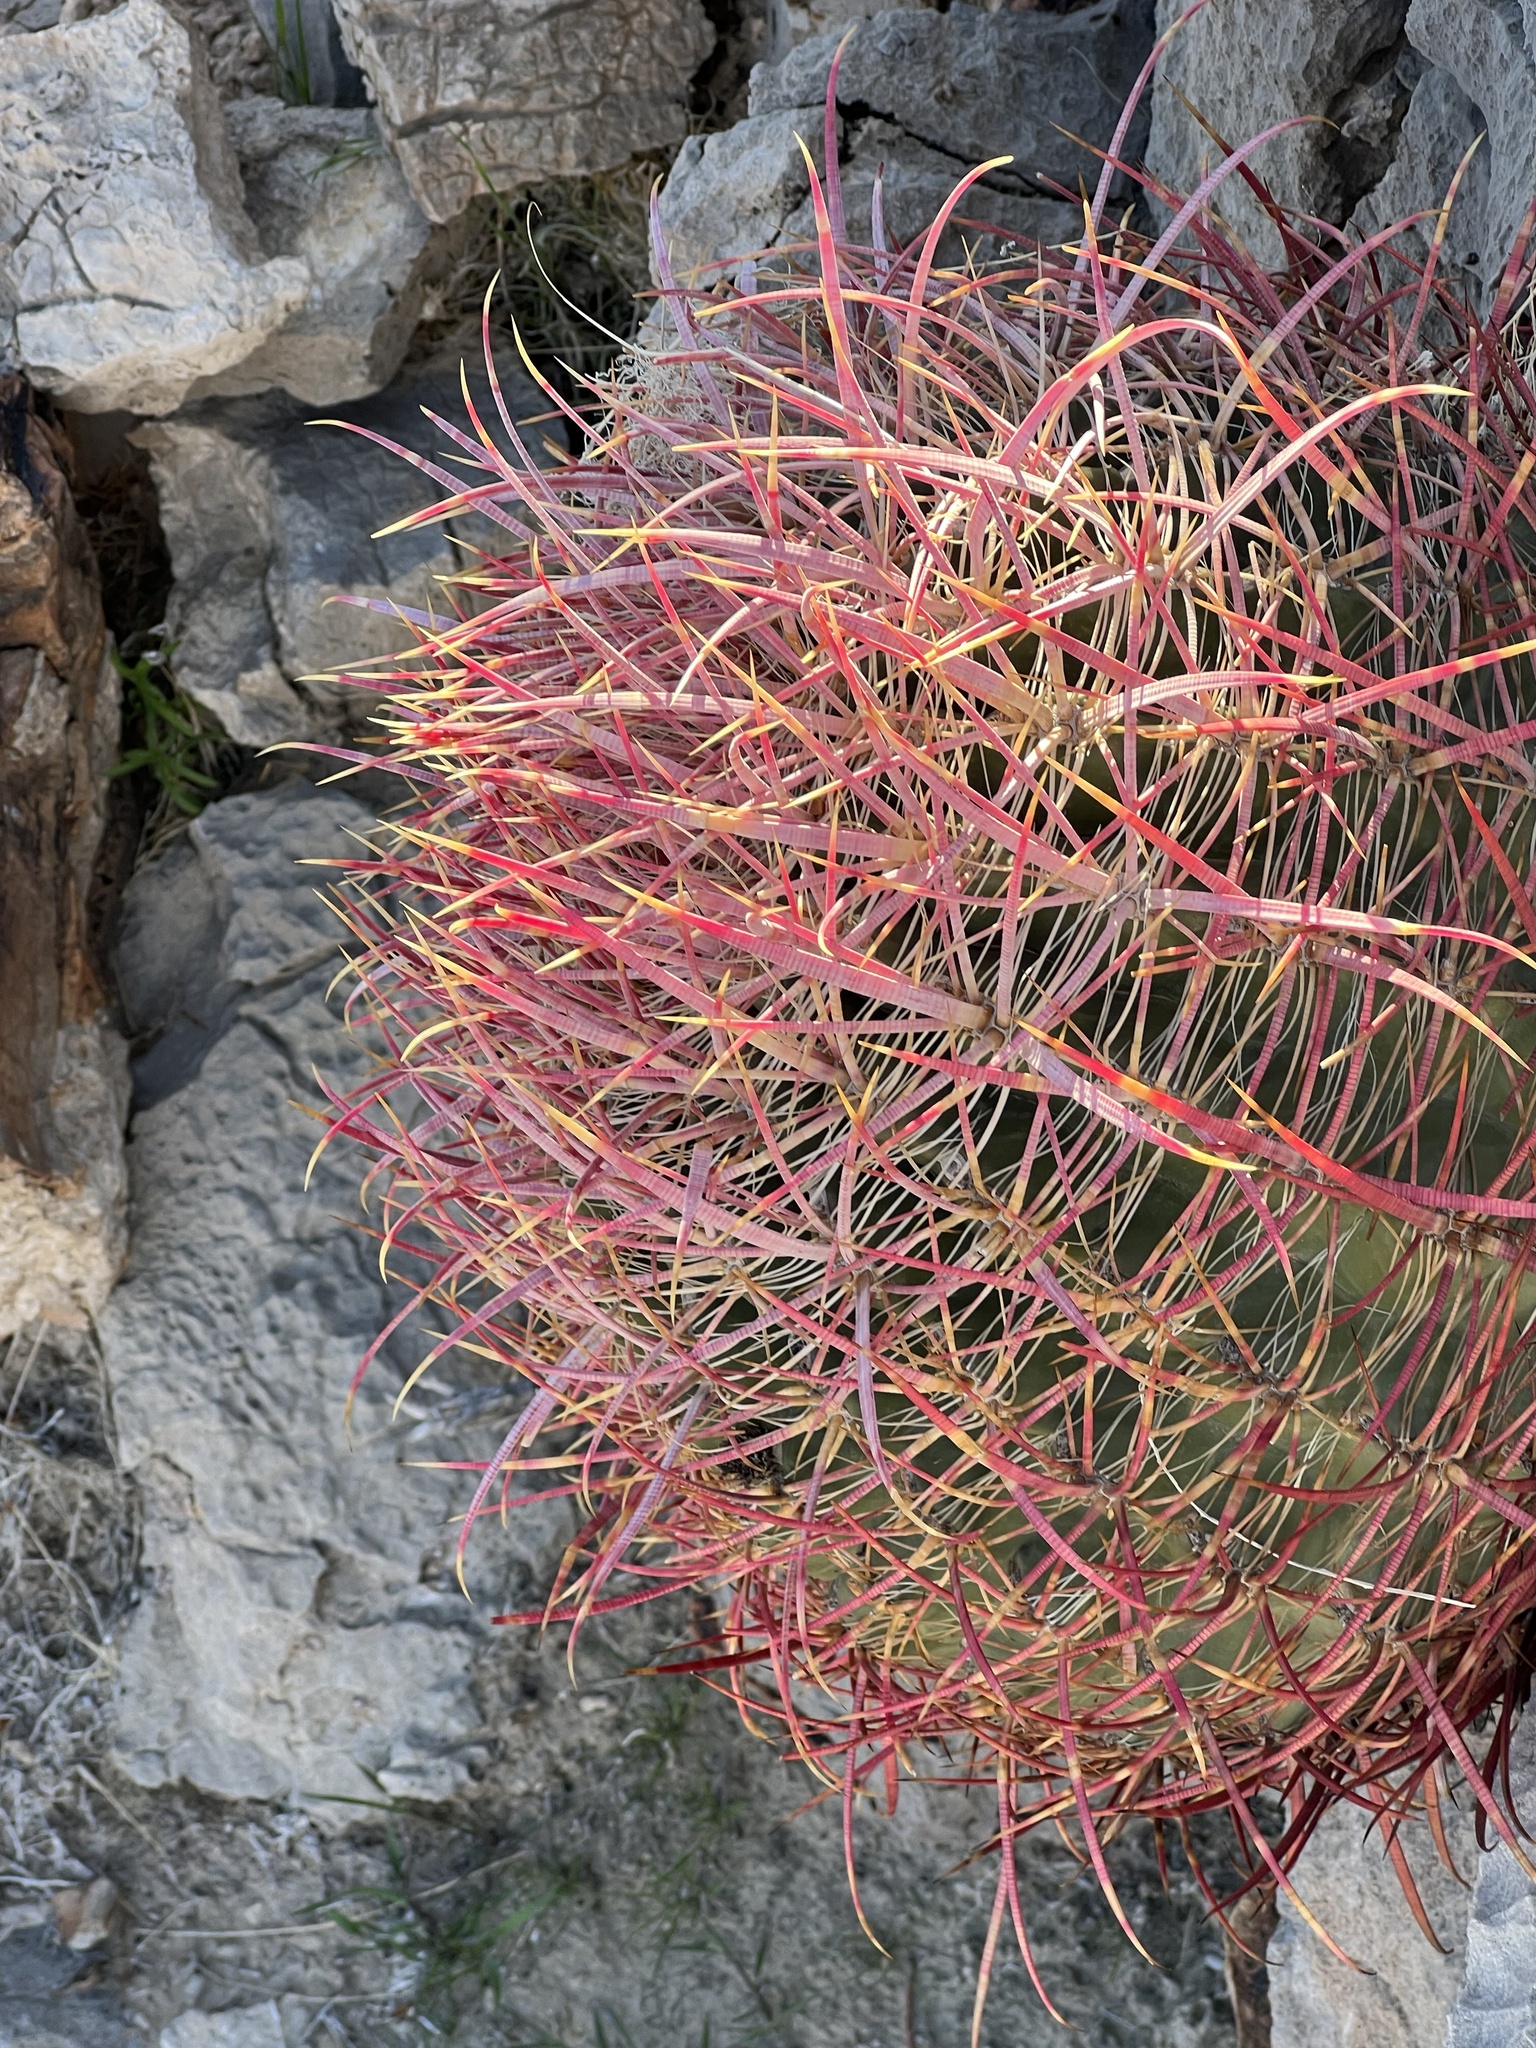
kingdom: Plantae
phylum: Tracheophyta
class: Magnoliopsida
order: Caryophyllales
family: Cactaceae
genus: Ferocactus
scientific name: Ferocactus cylindraceus
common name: California barrel cactus
